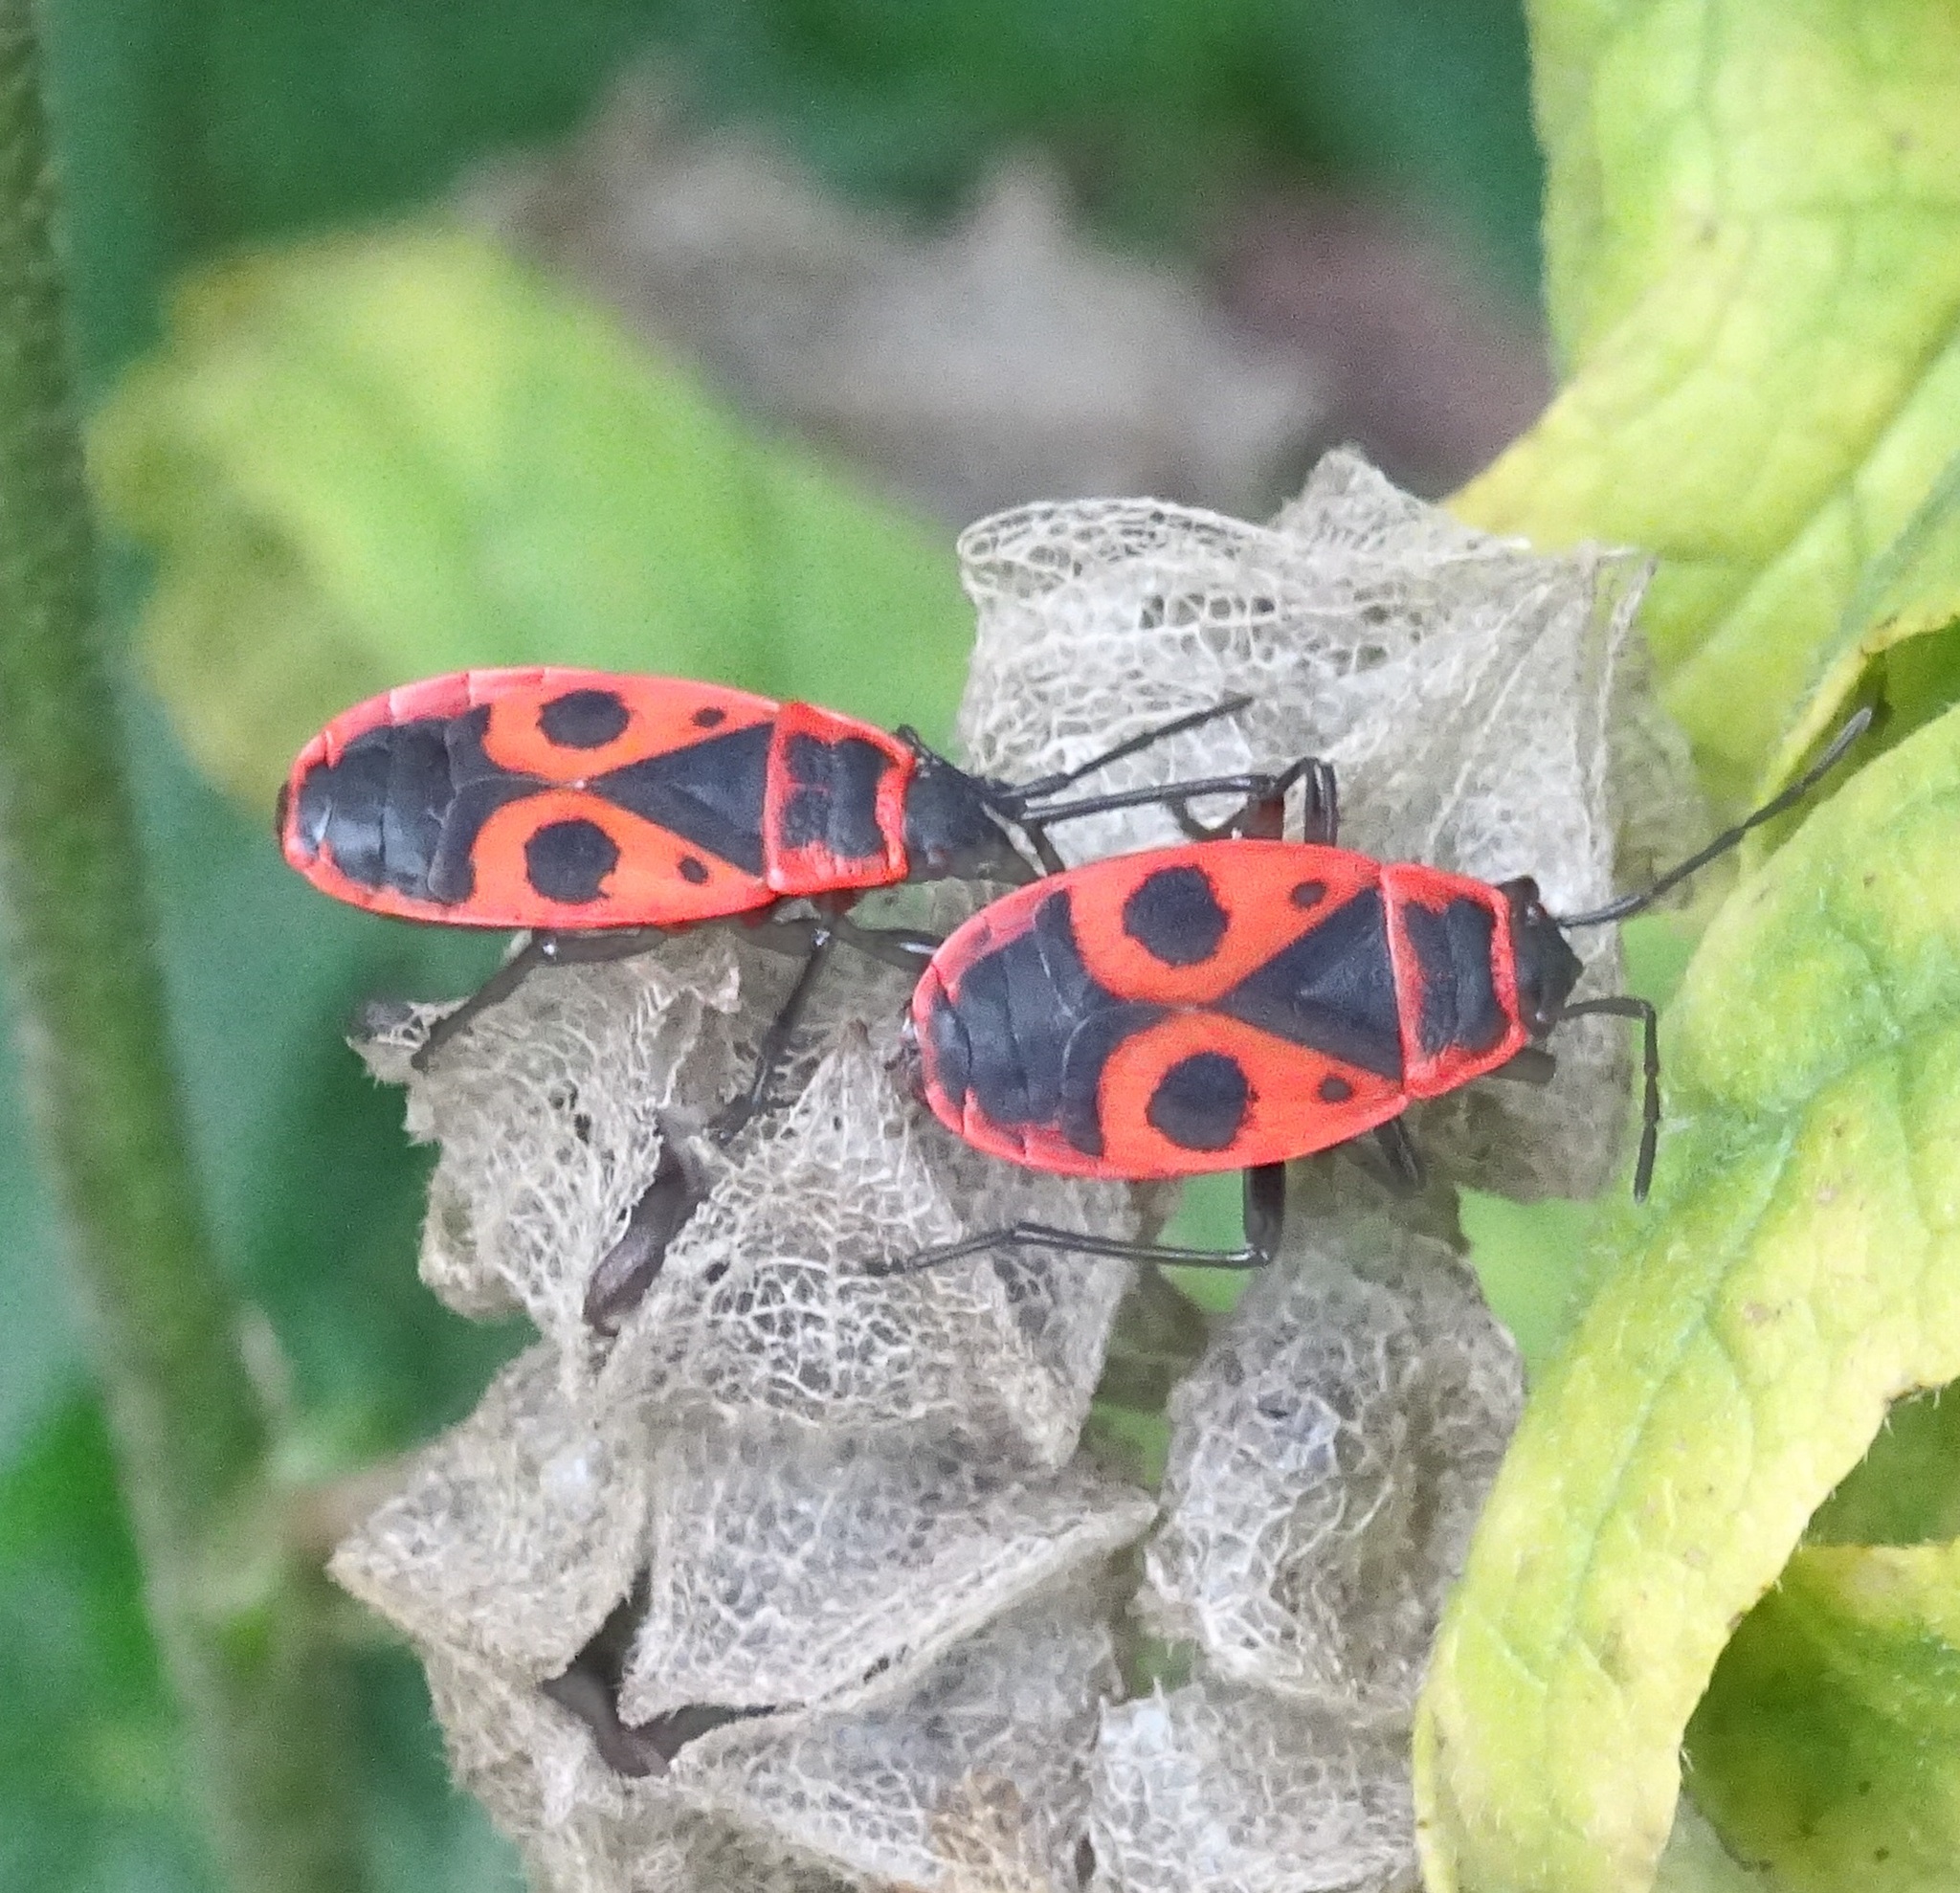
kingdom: Animalia
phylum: Arthropoda
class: Insecta
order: Hemiptera
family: Pyrrhocoridae
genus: Pyrrhocoris
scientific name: Pyrrhocoris apterus
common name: Firebug
